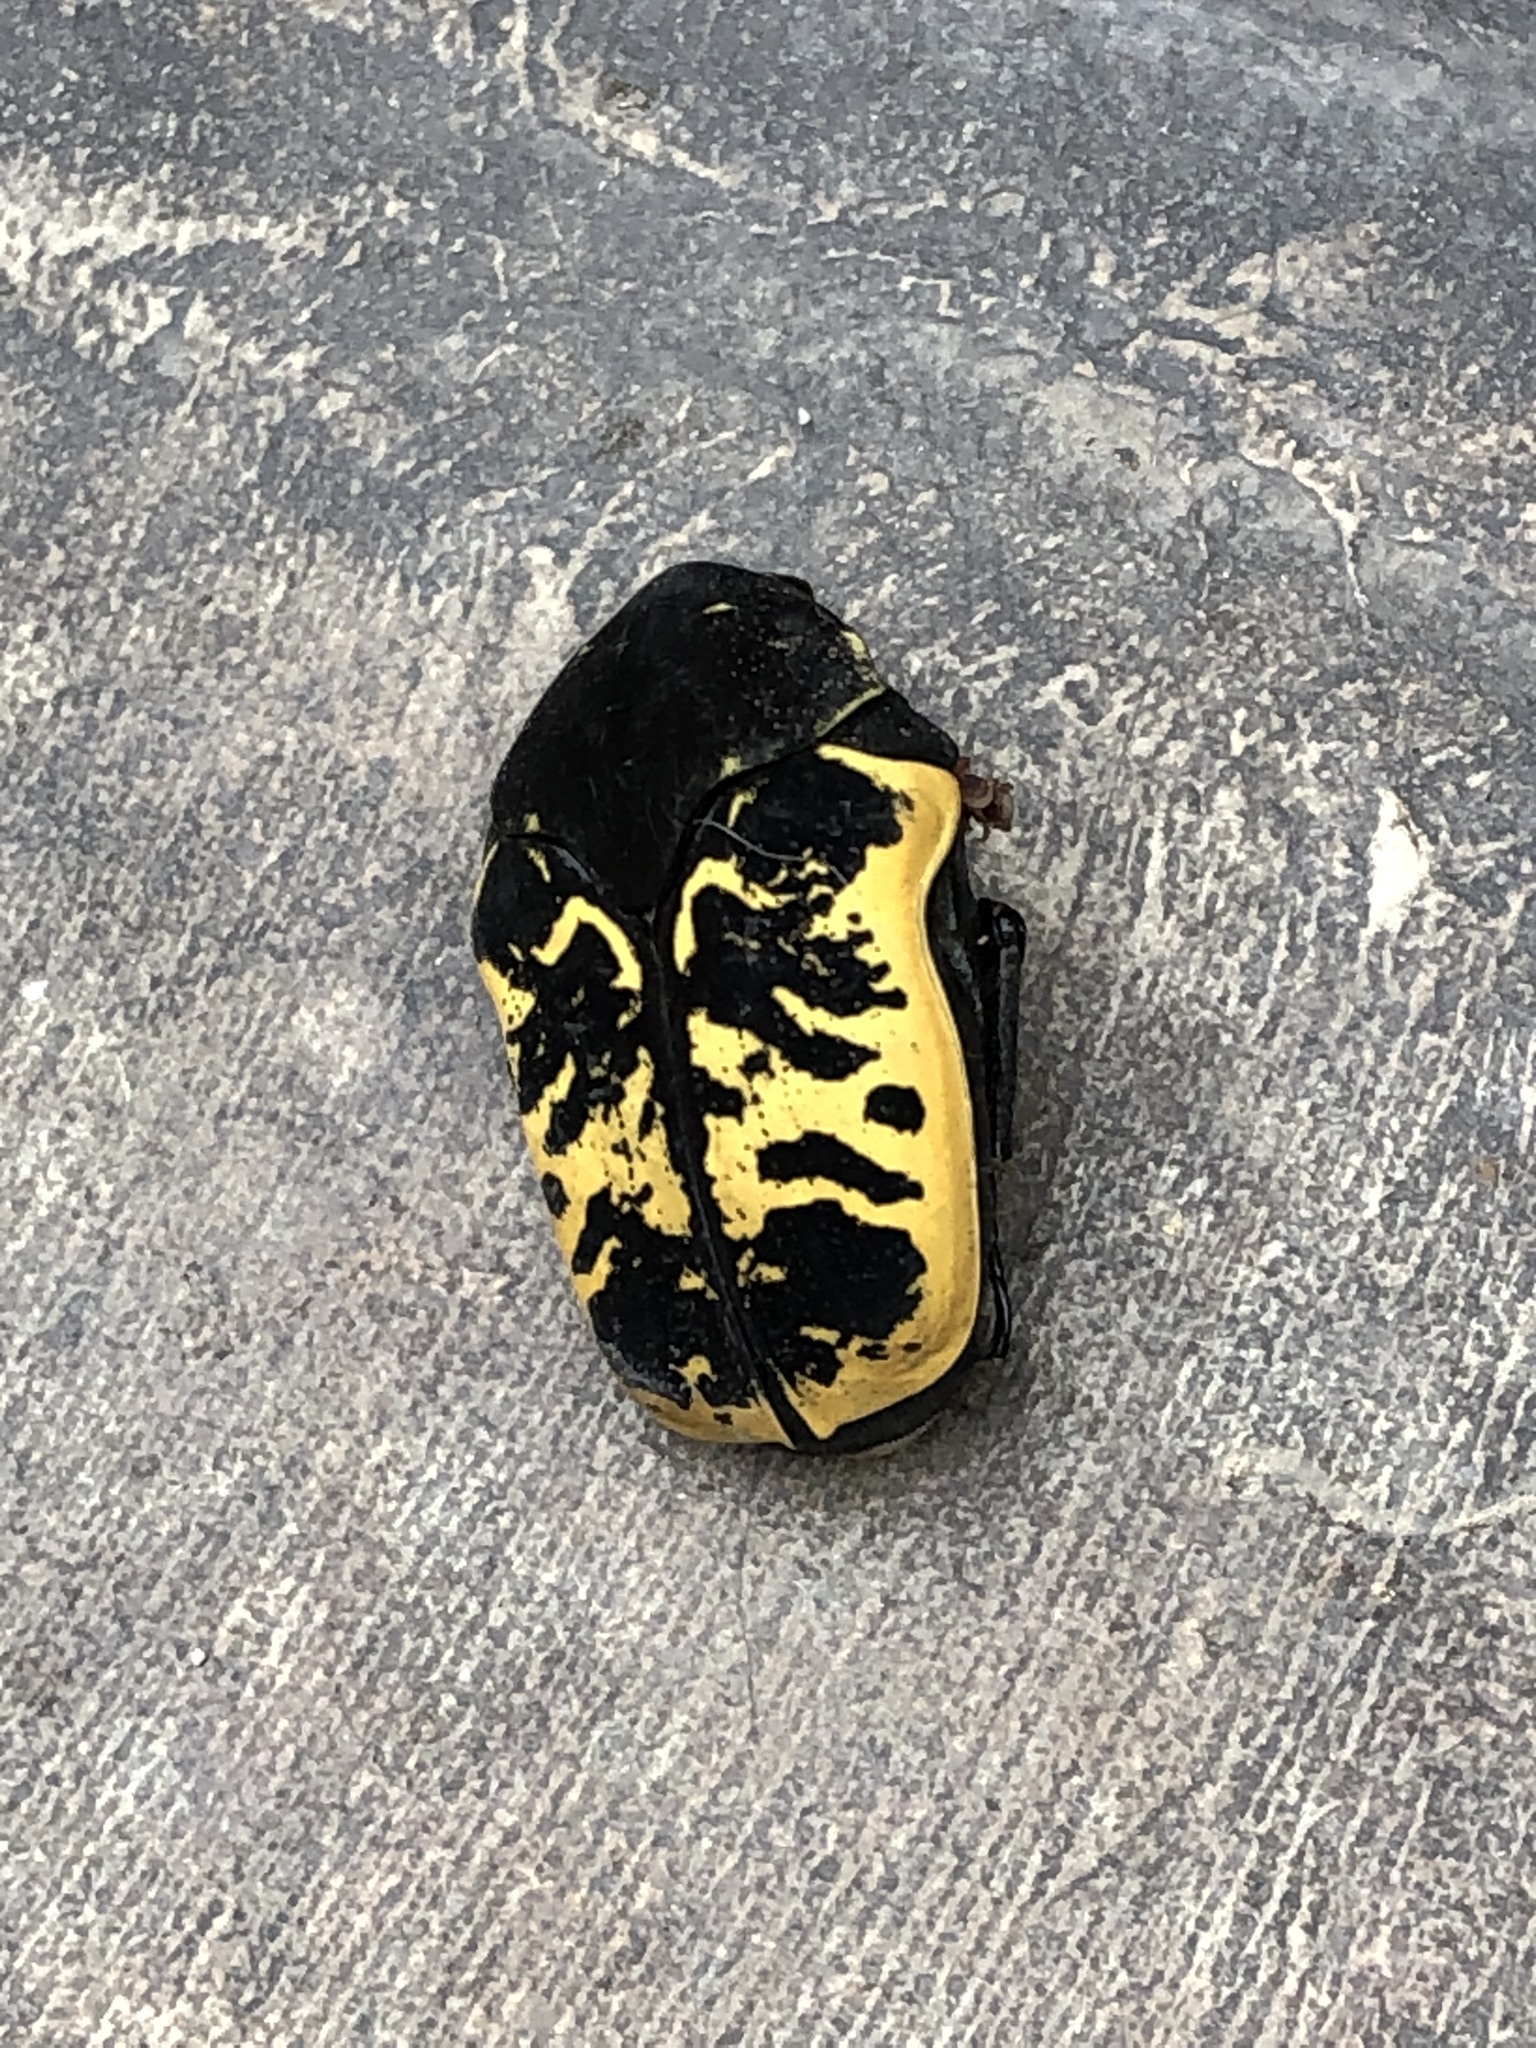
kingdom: Animalia
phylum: Arthropoda
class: Insecta
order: Coleoptera
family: Scarabaeidae
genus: Gymnetis
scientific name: Gymnetis merops
